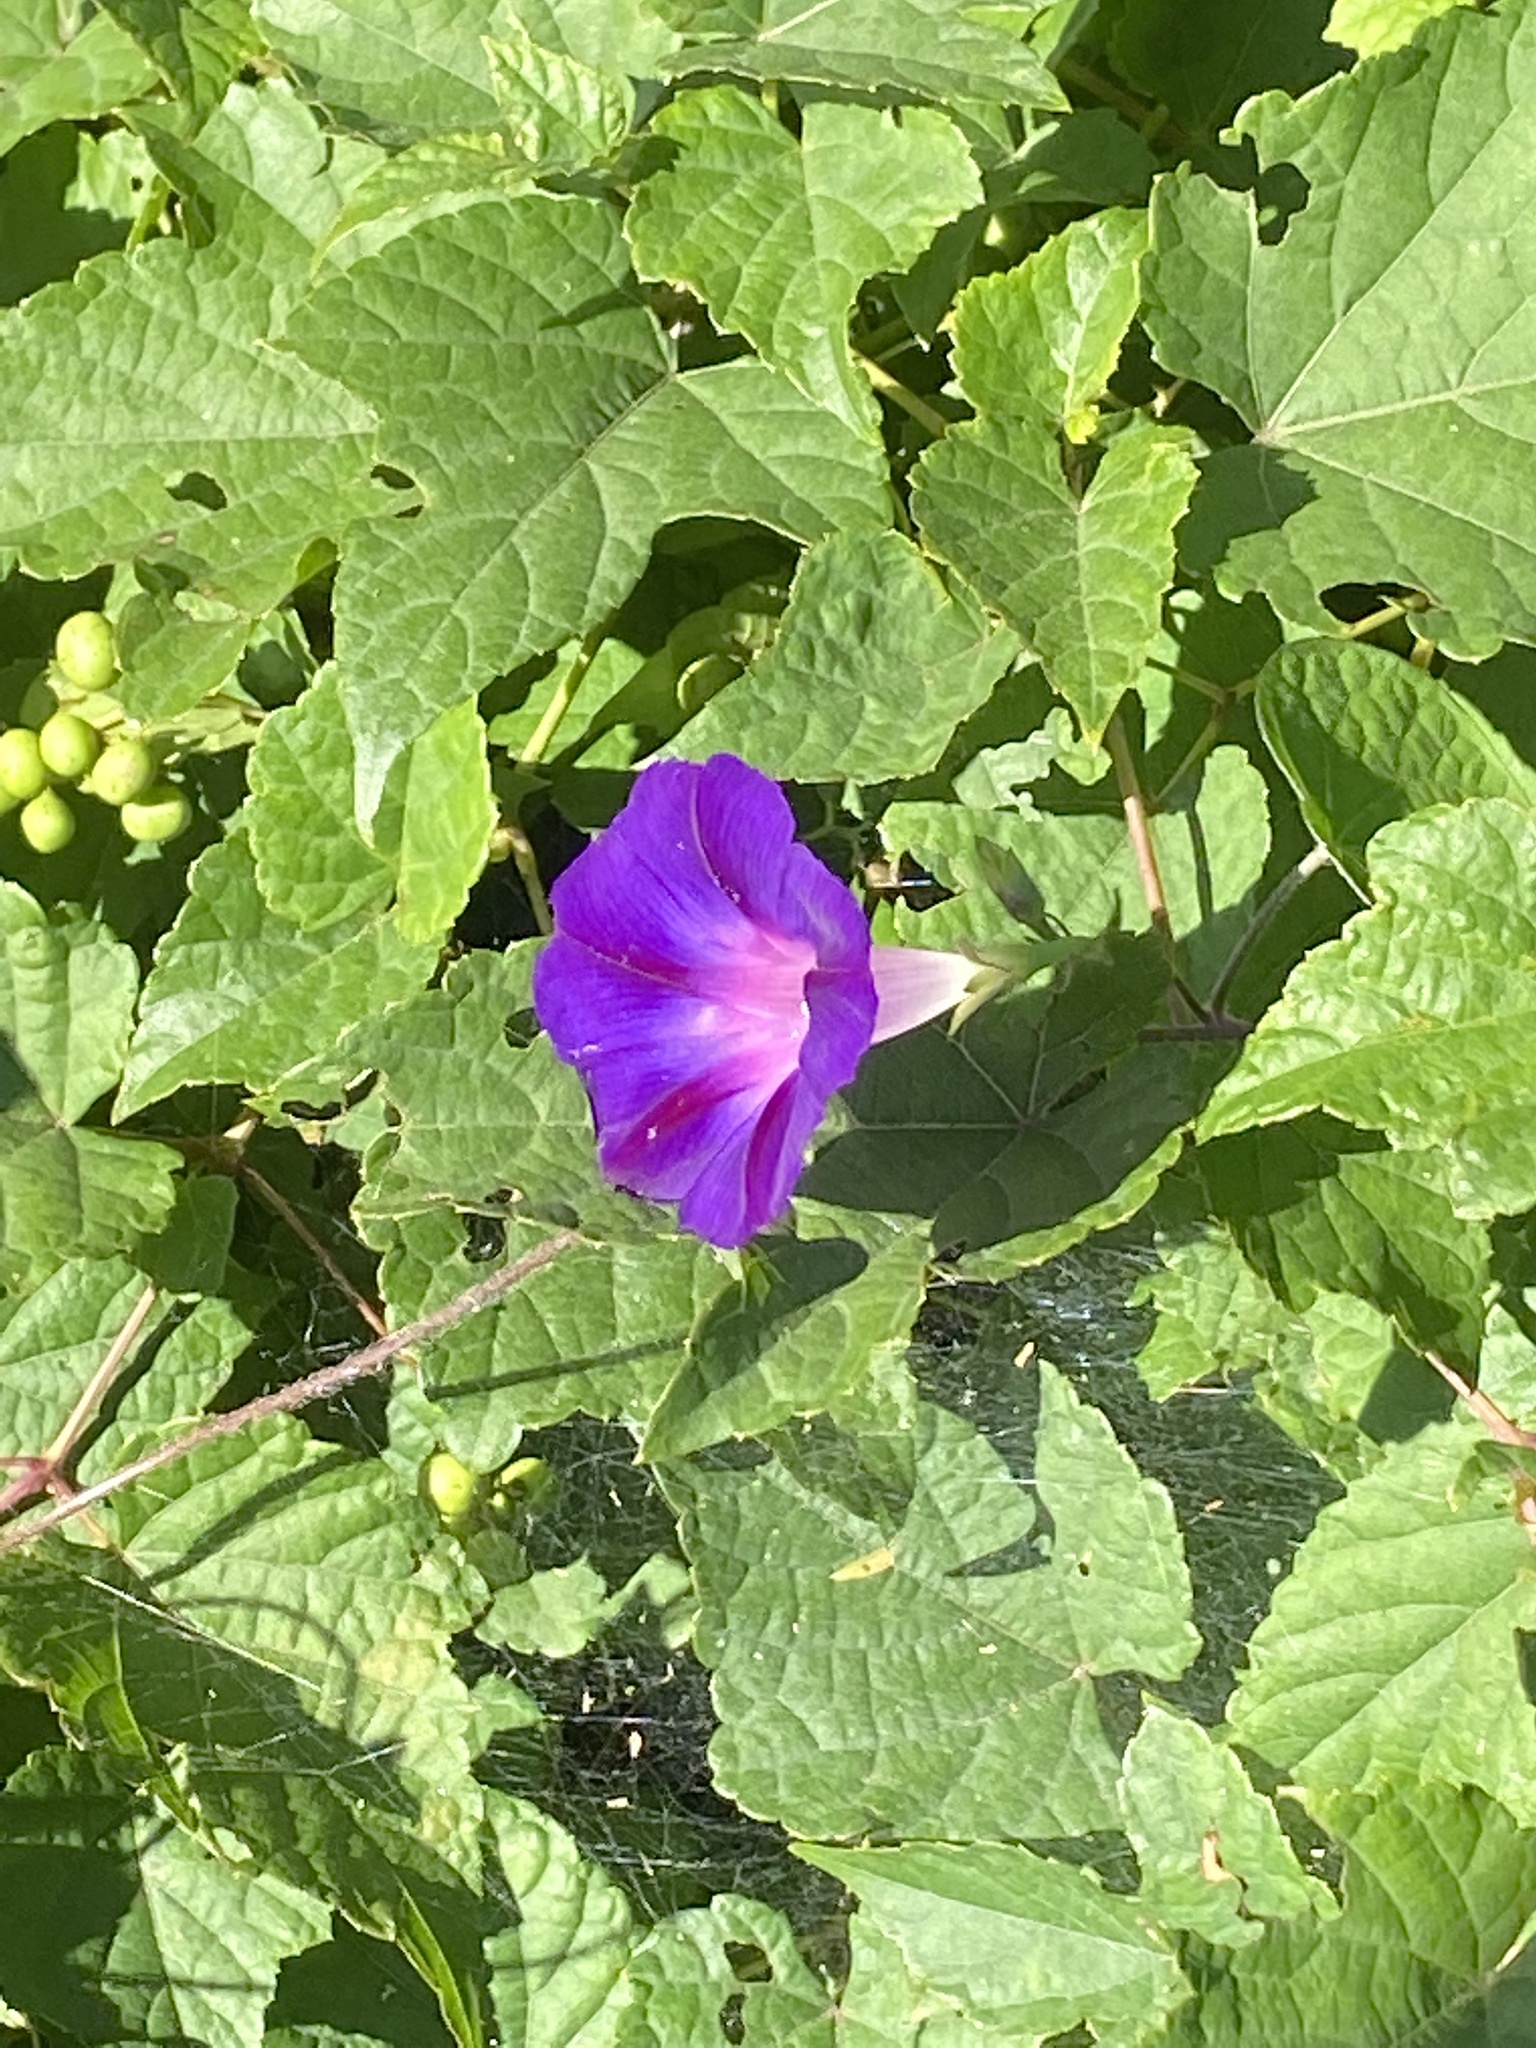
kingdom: Plantae
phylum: Tracheophyta
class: Magnoliopsida
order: Solanales
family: Convolvulaceae
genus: Ipomoea
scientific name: Ipomoea purpurea
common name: Common morning-glory
